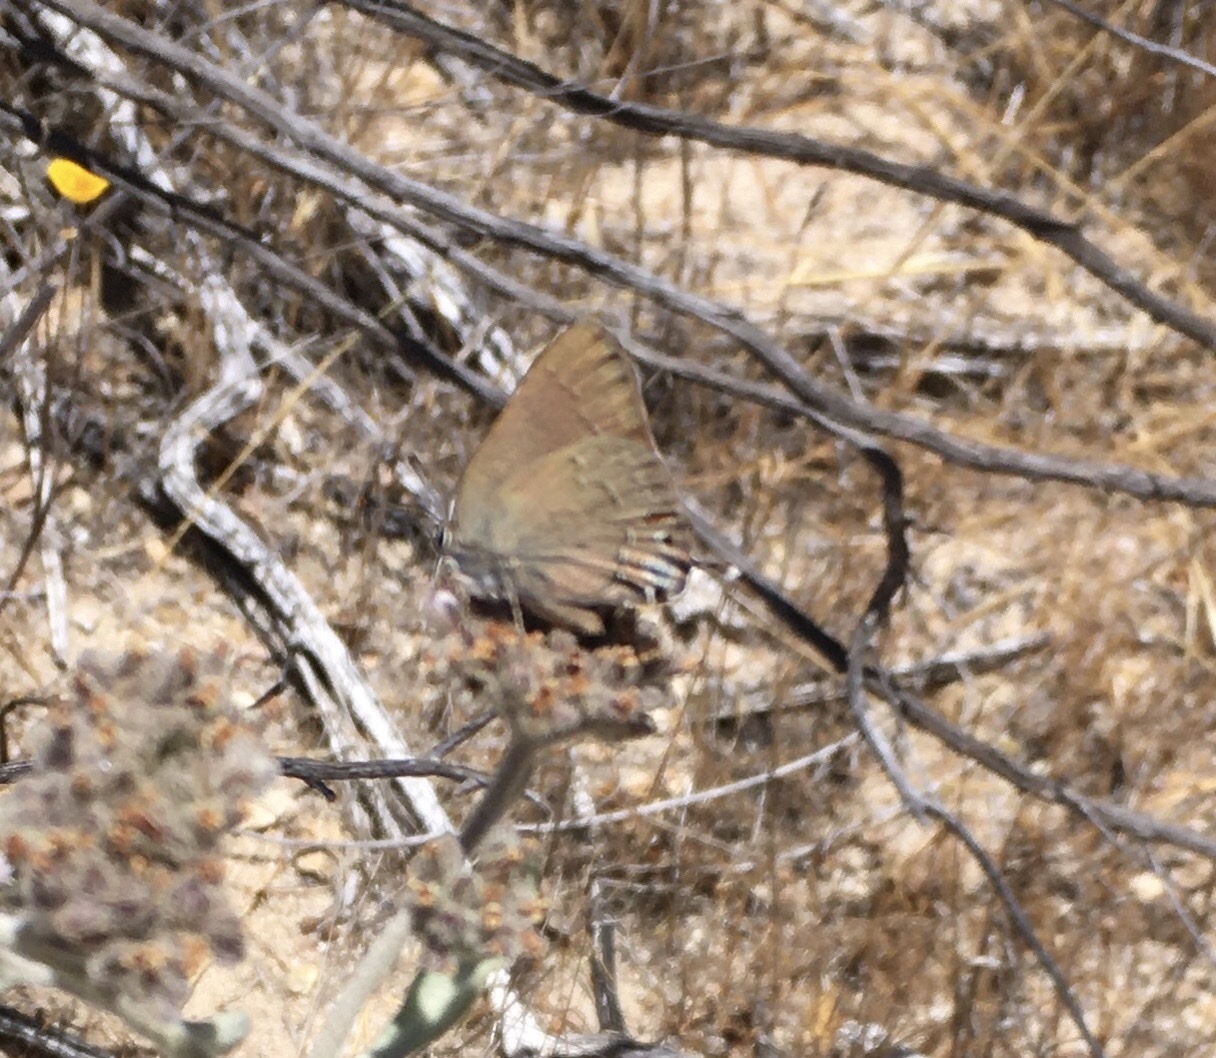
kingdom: Animalia
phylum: Arthropoda
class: Insecta
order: Lepidoptera
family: Lycaenidae
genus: Strymon
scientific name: Strymon saepium
